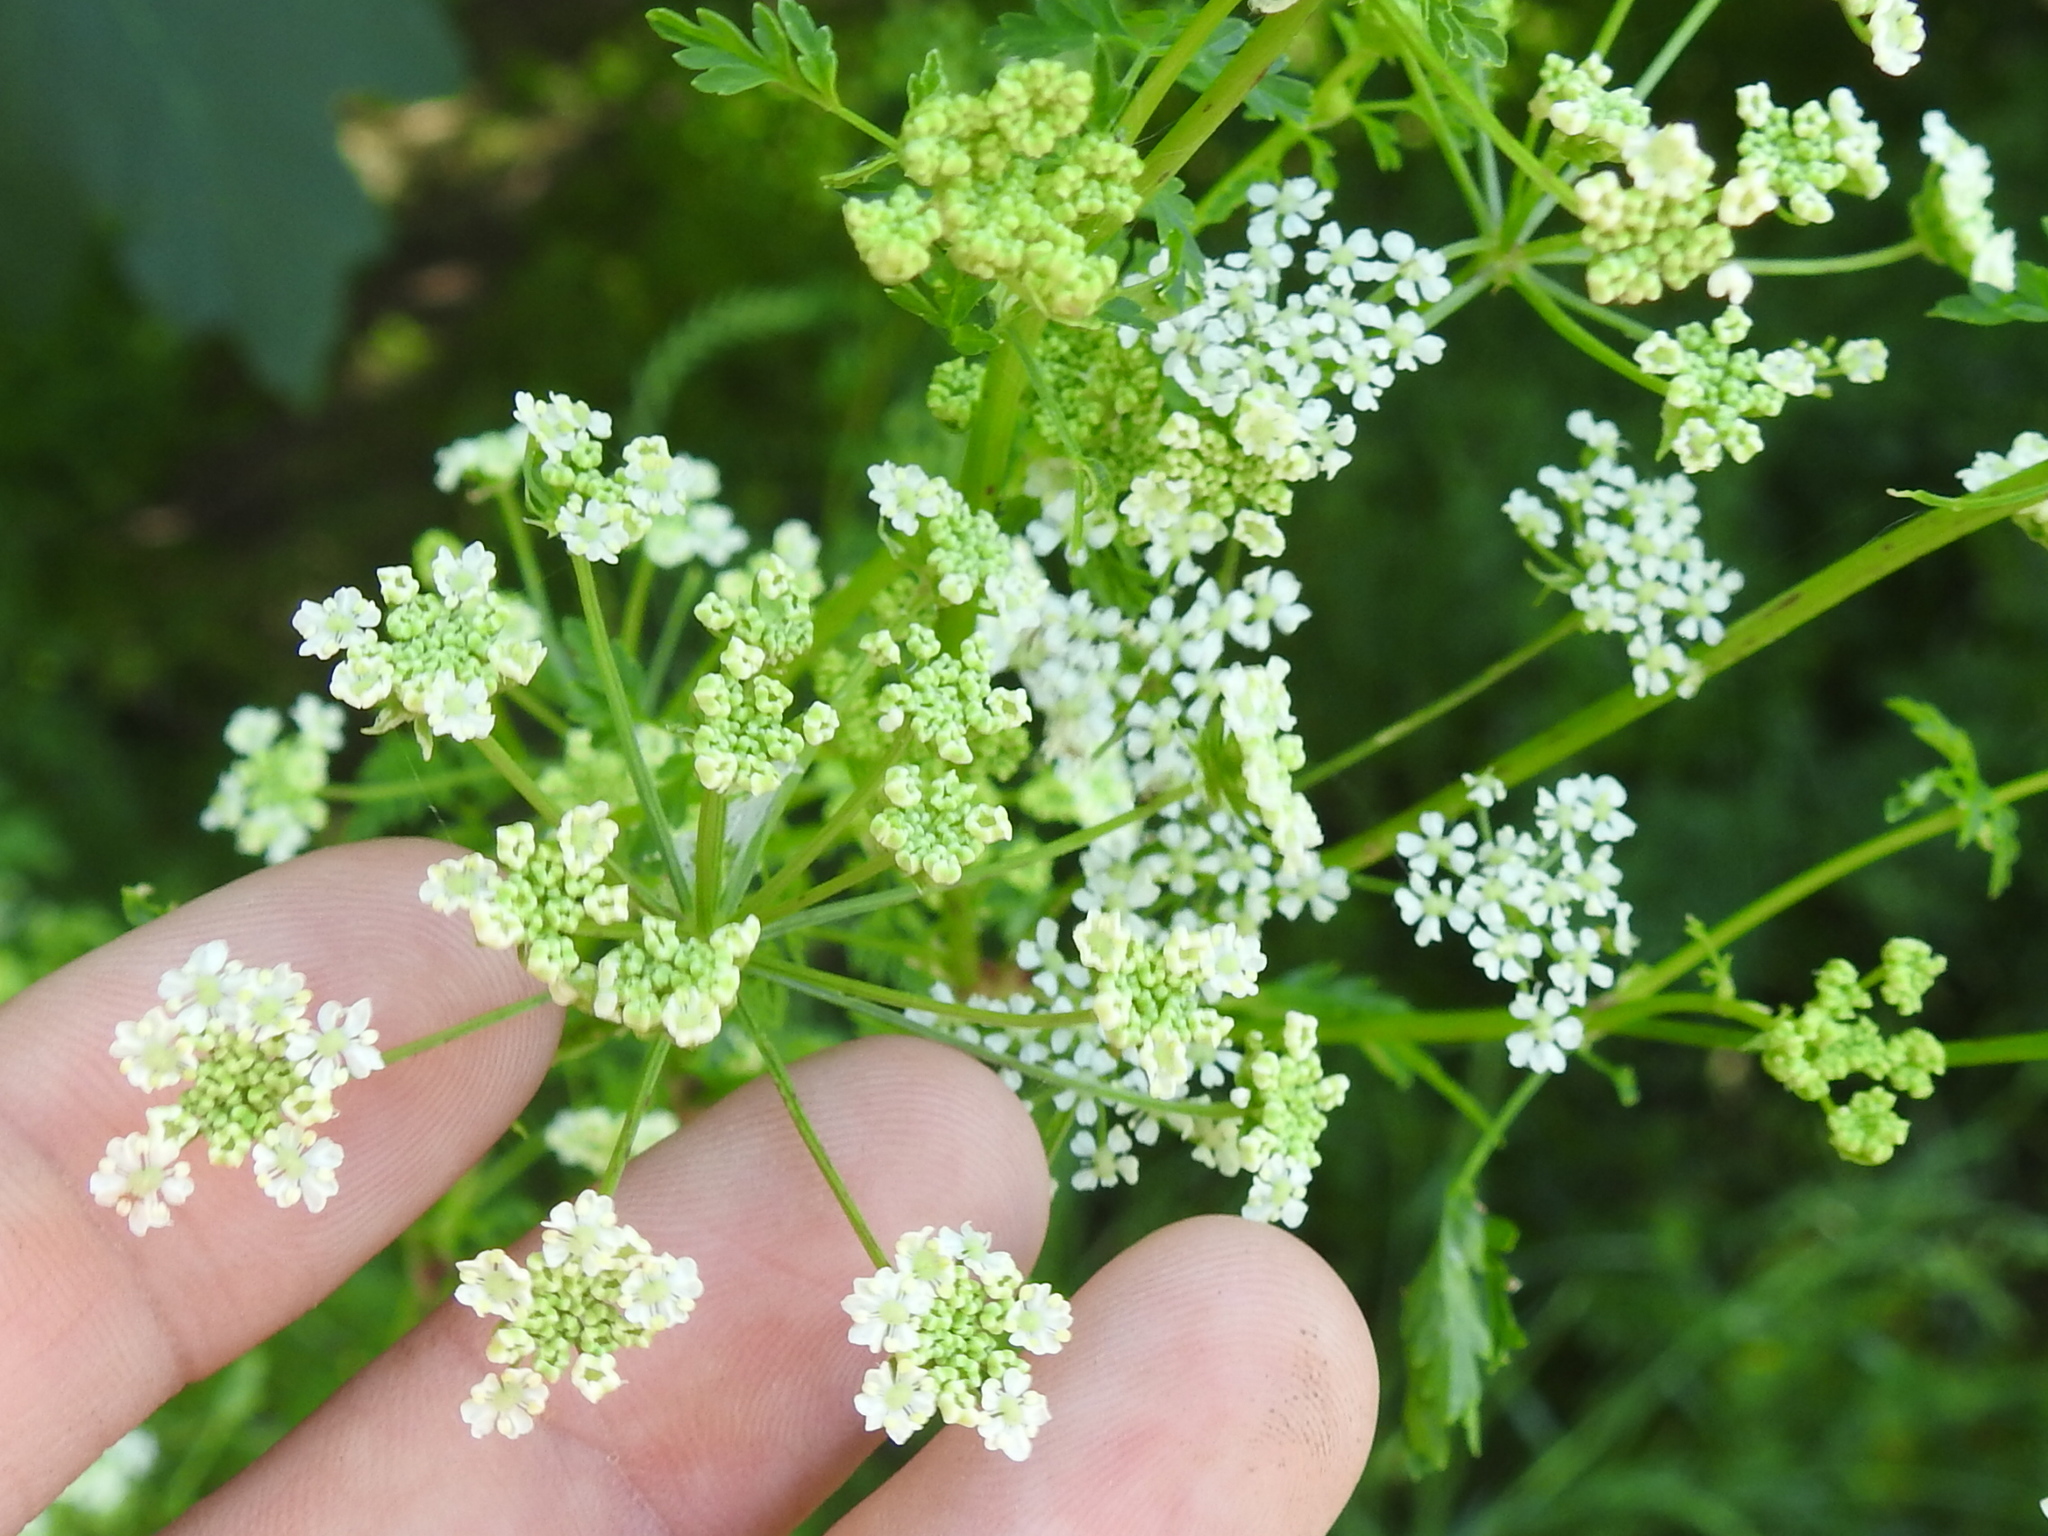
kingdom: Plantae
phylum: Tracheophyta
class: Magnoliopsida
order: Apiales
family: Apiaceae
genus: Conium
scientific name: Conium maculatum
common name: Hemlock
